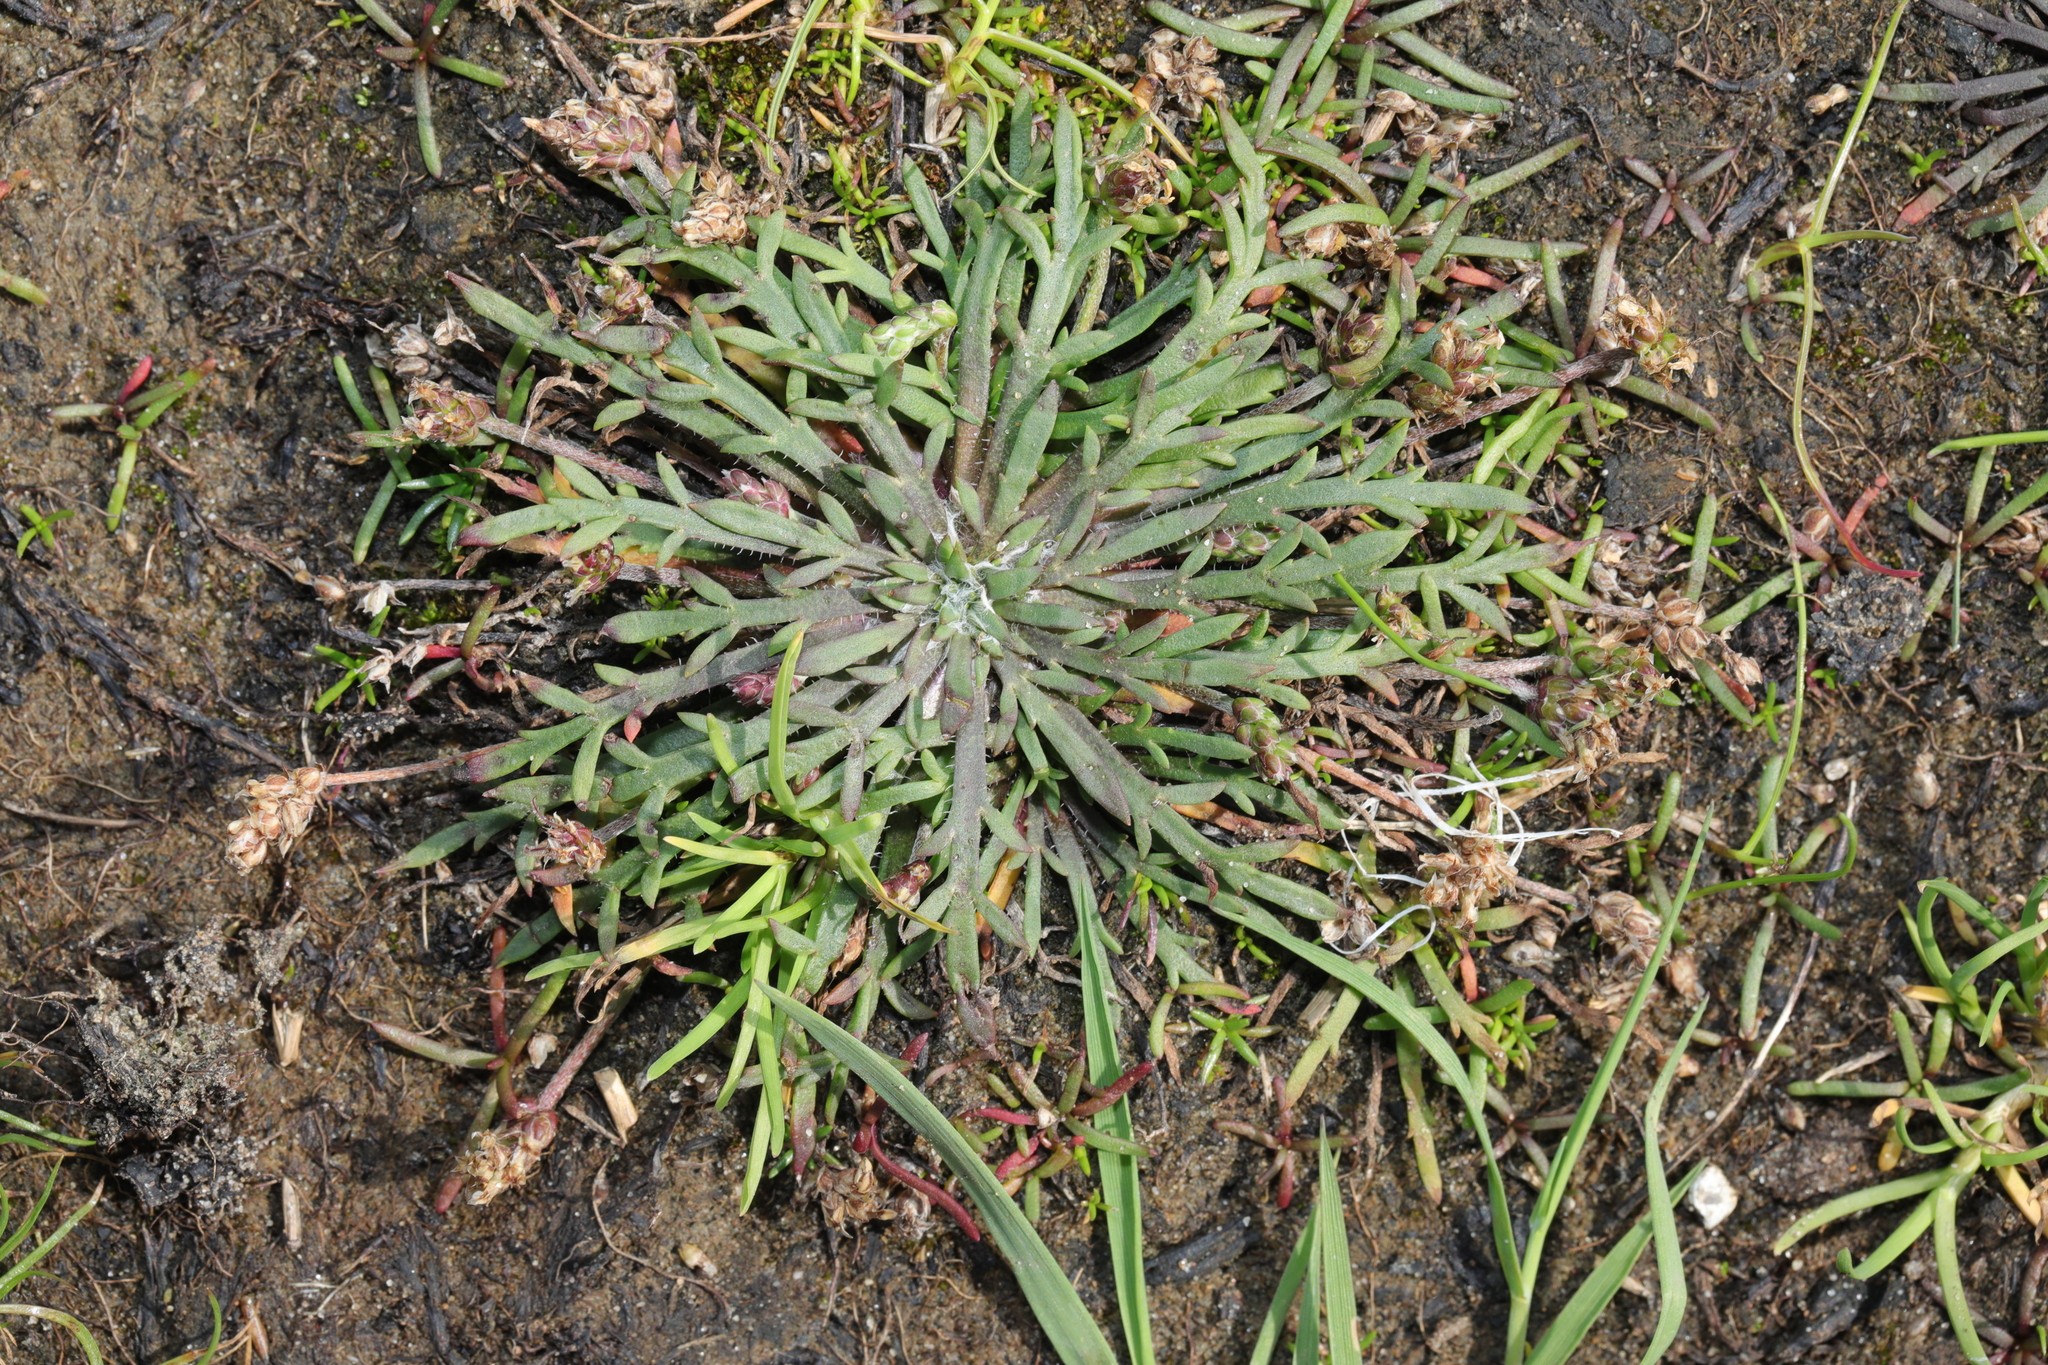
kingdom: Plantae
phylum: Tracheophyta
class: Magnoliopsida
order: Lamiales
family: Plantaginaceae
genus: Plantago
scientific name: Plantago coronopus
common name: Buck's-horn plantain
